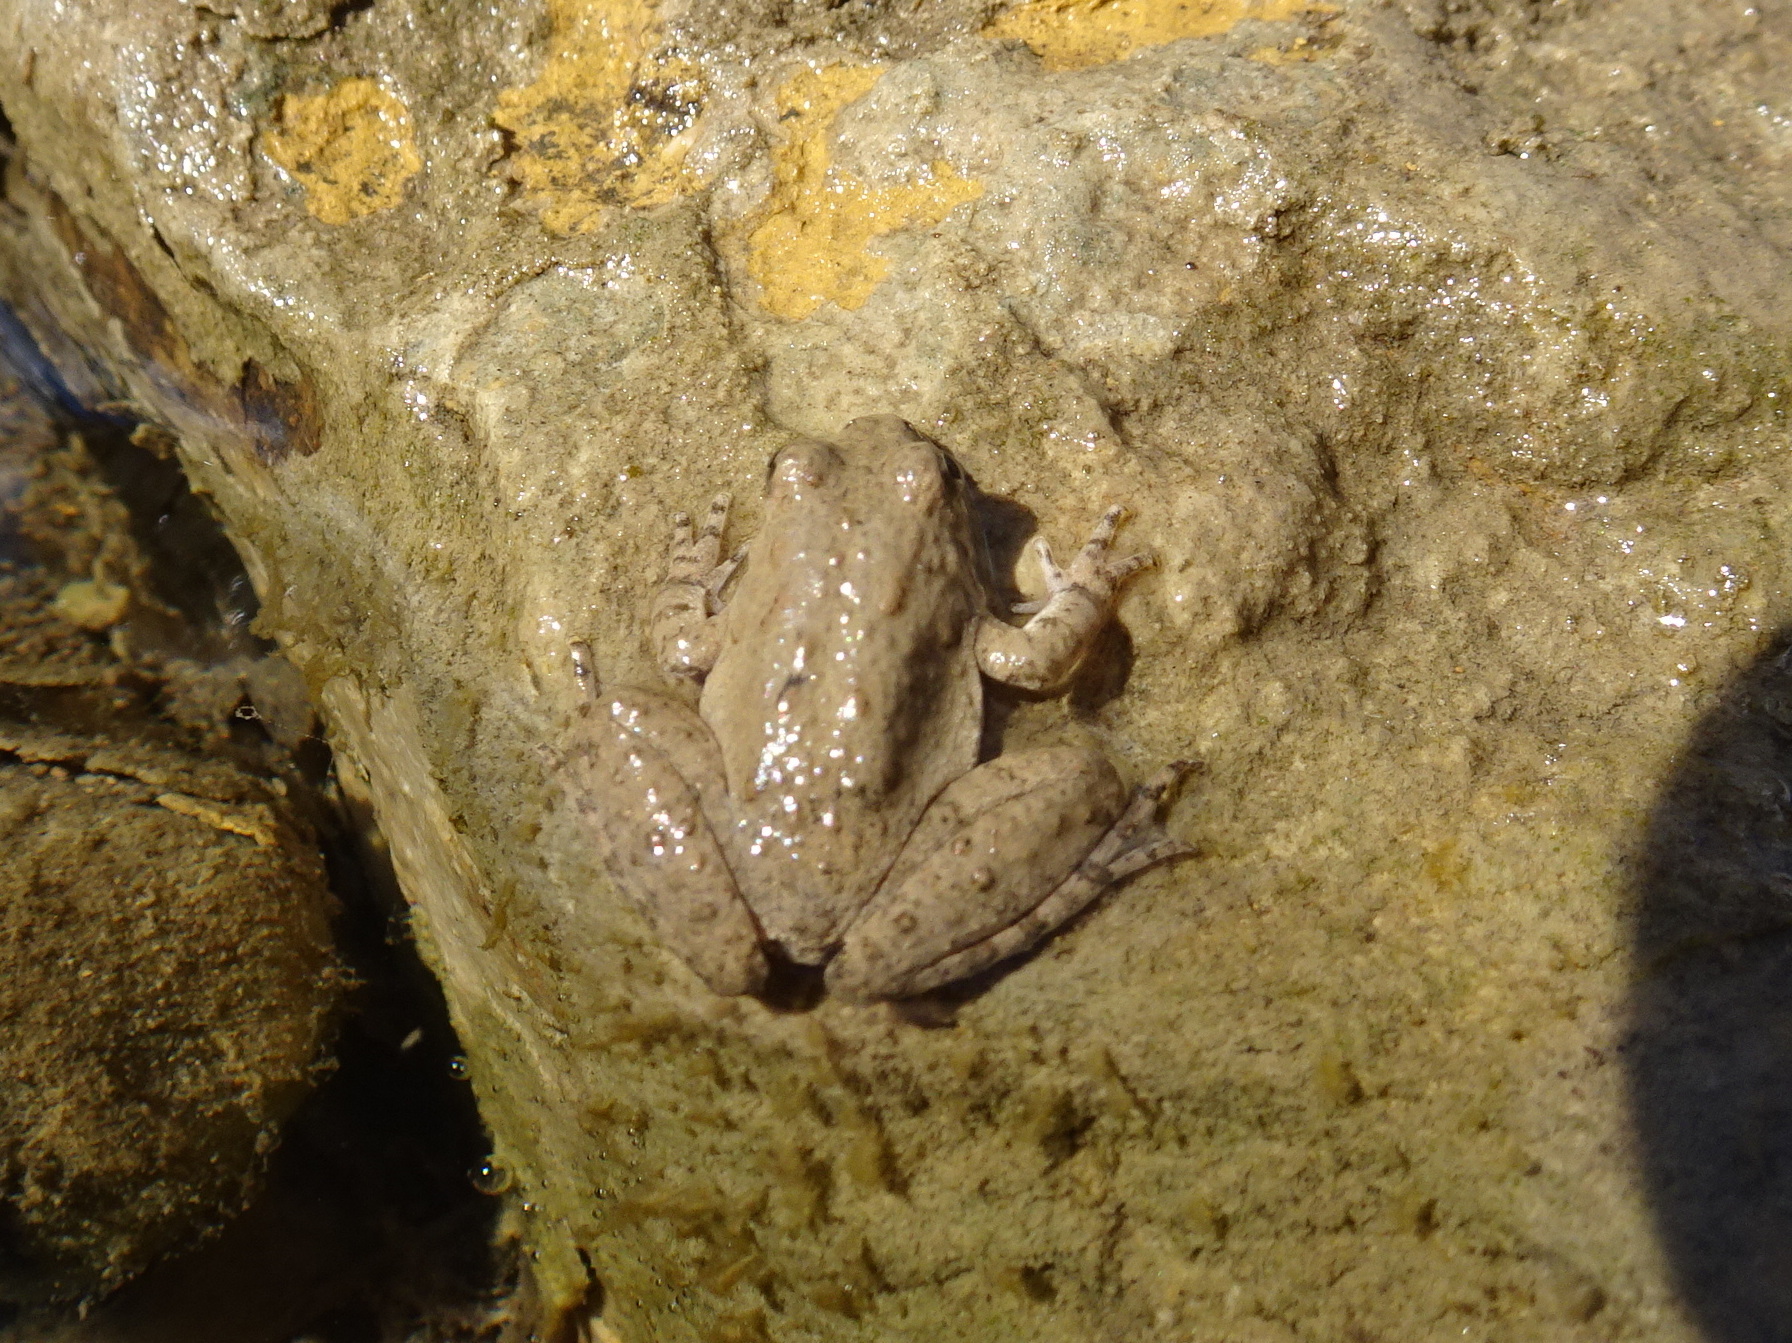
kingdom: Animalia
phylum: Chordata
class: Amphibia
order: Anura
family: Hylidae
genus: Acris
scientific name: Acris blanchardi
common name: Blanchard's cricket frog
